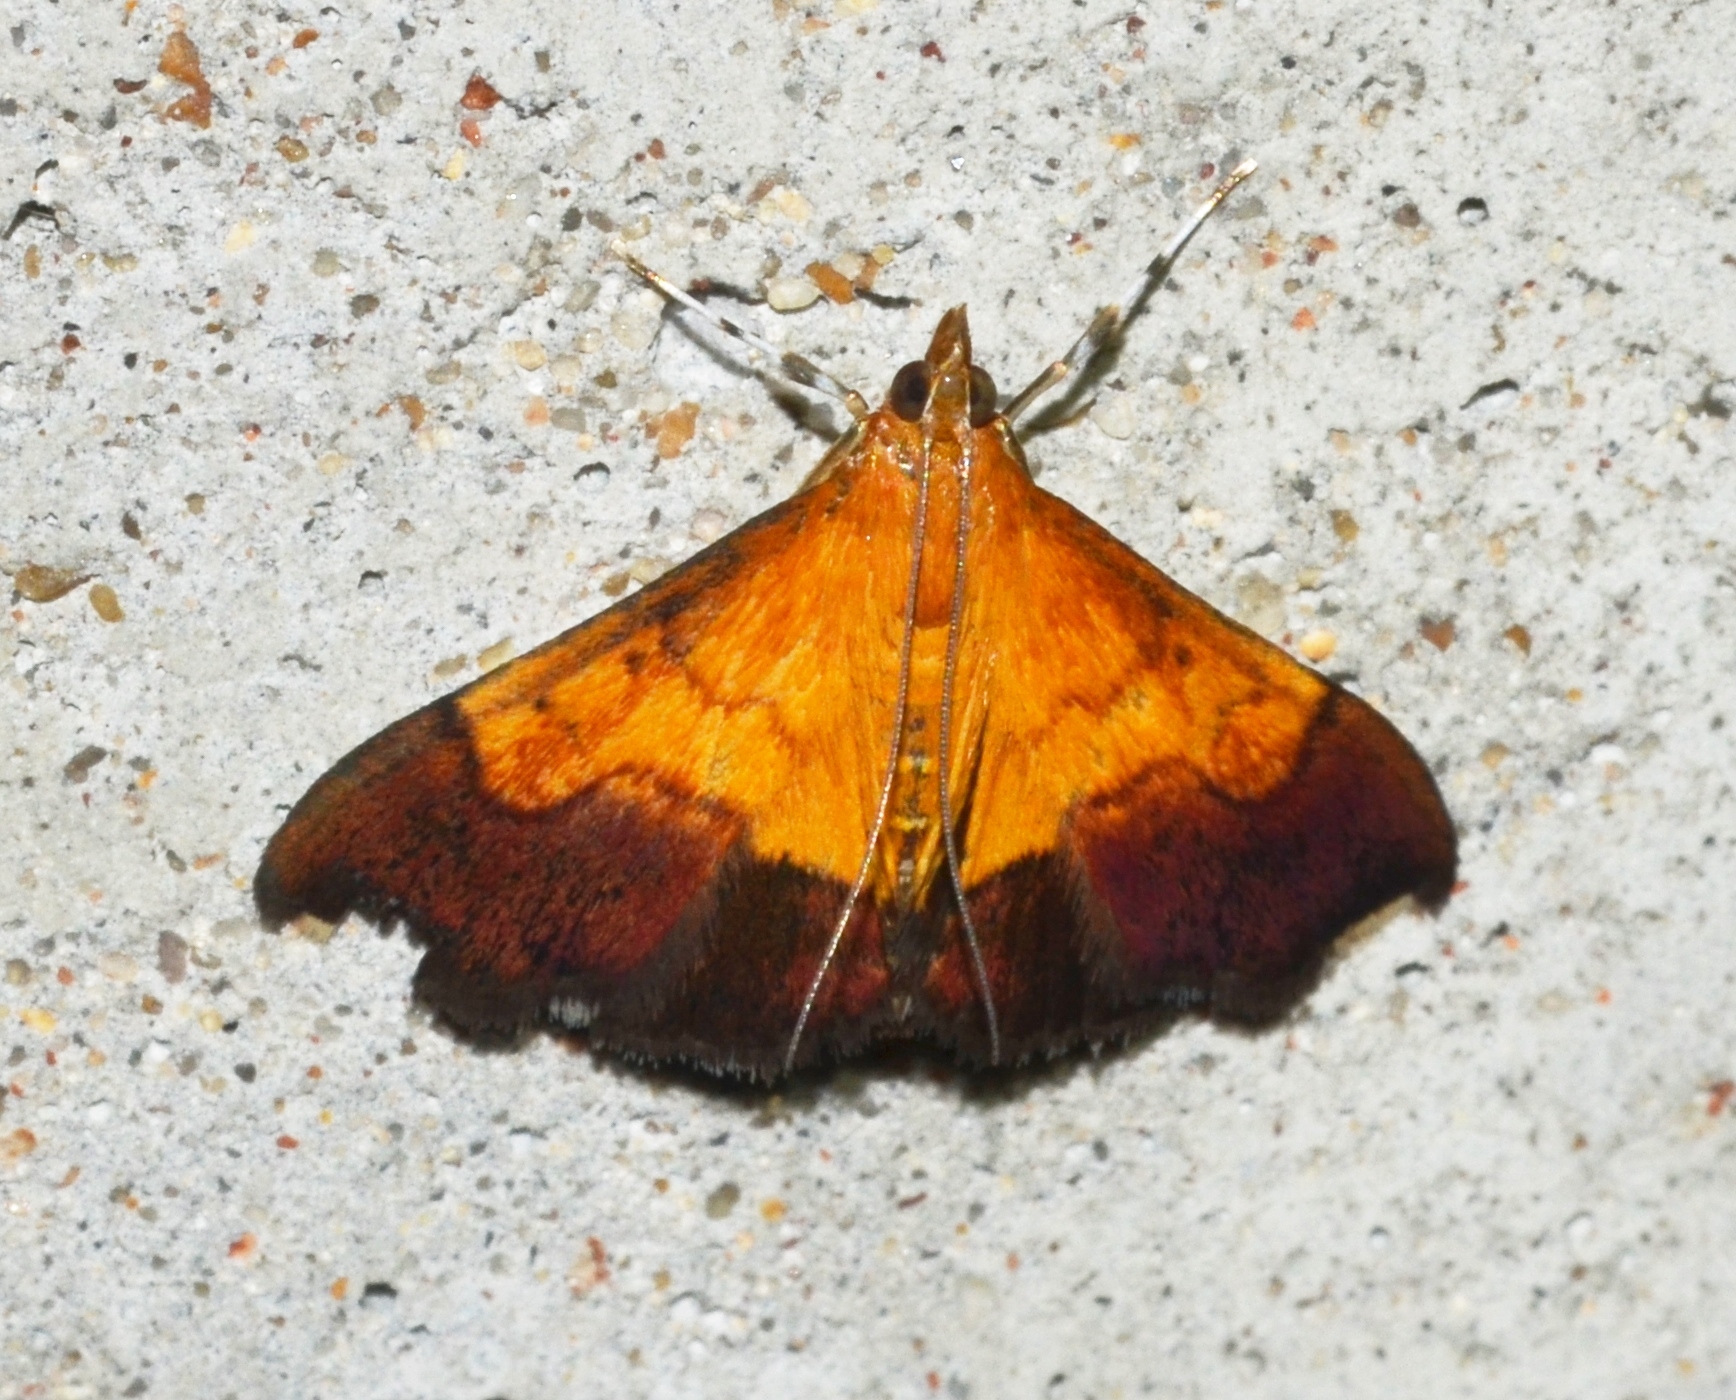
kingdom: Animalia
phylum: Arthropoda
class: Insecta
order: Lepidoptera
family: Crambidae
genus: Pyrausta
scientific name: Pyrausta bicoloralis
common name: Bicolored pyrausta moth
